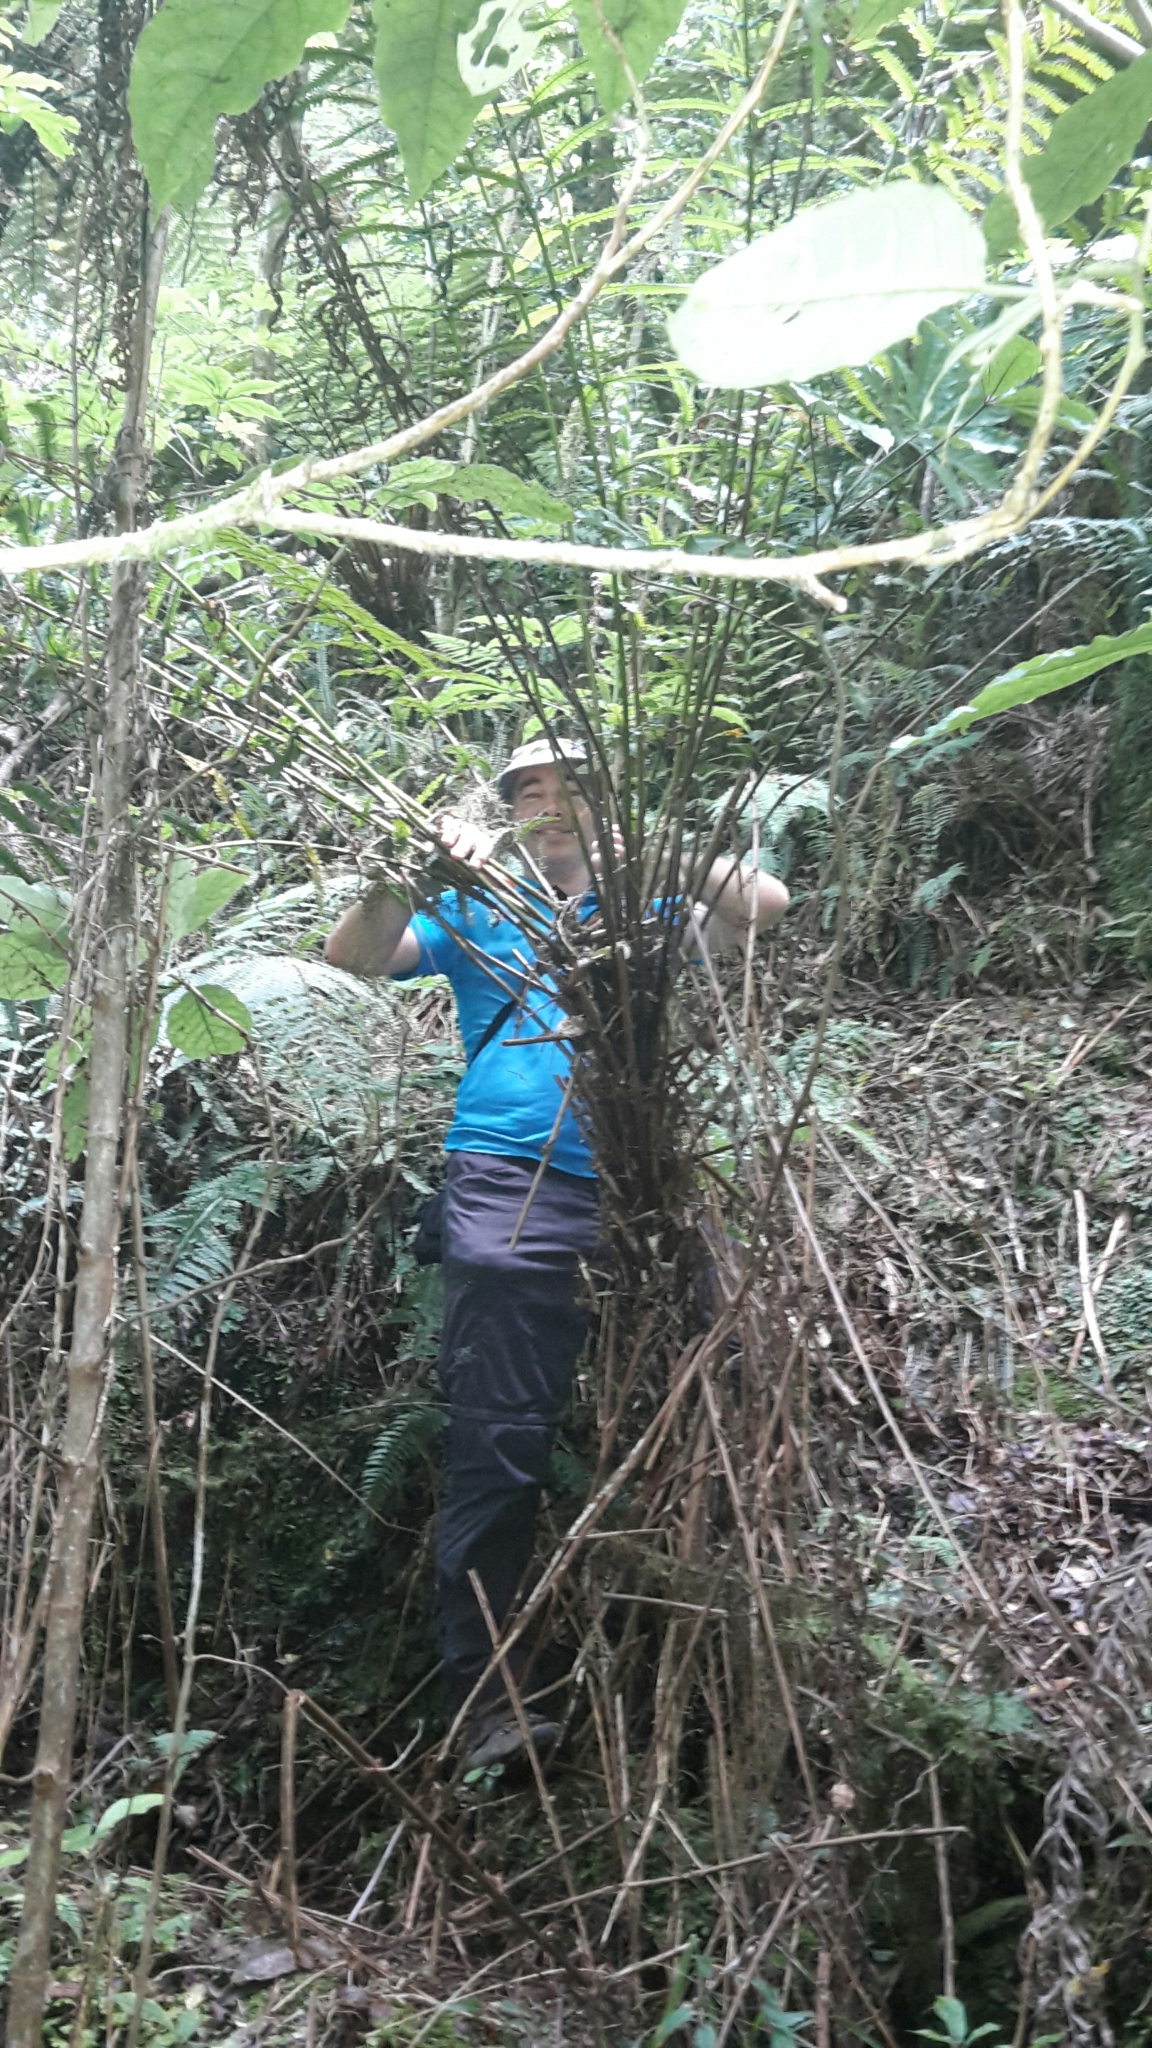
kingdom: Plantae
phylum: Tracheophyta
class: Polypodiopsida
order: Polypodiales
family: Thelypteridaceae
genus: Pakau
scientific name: Pakau pennigera
